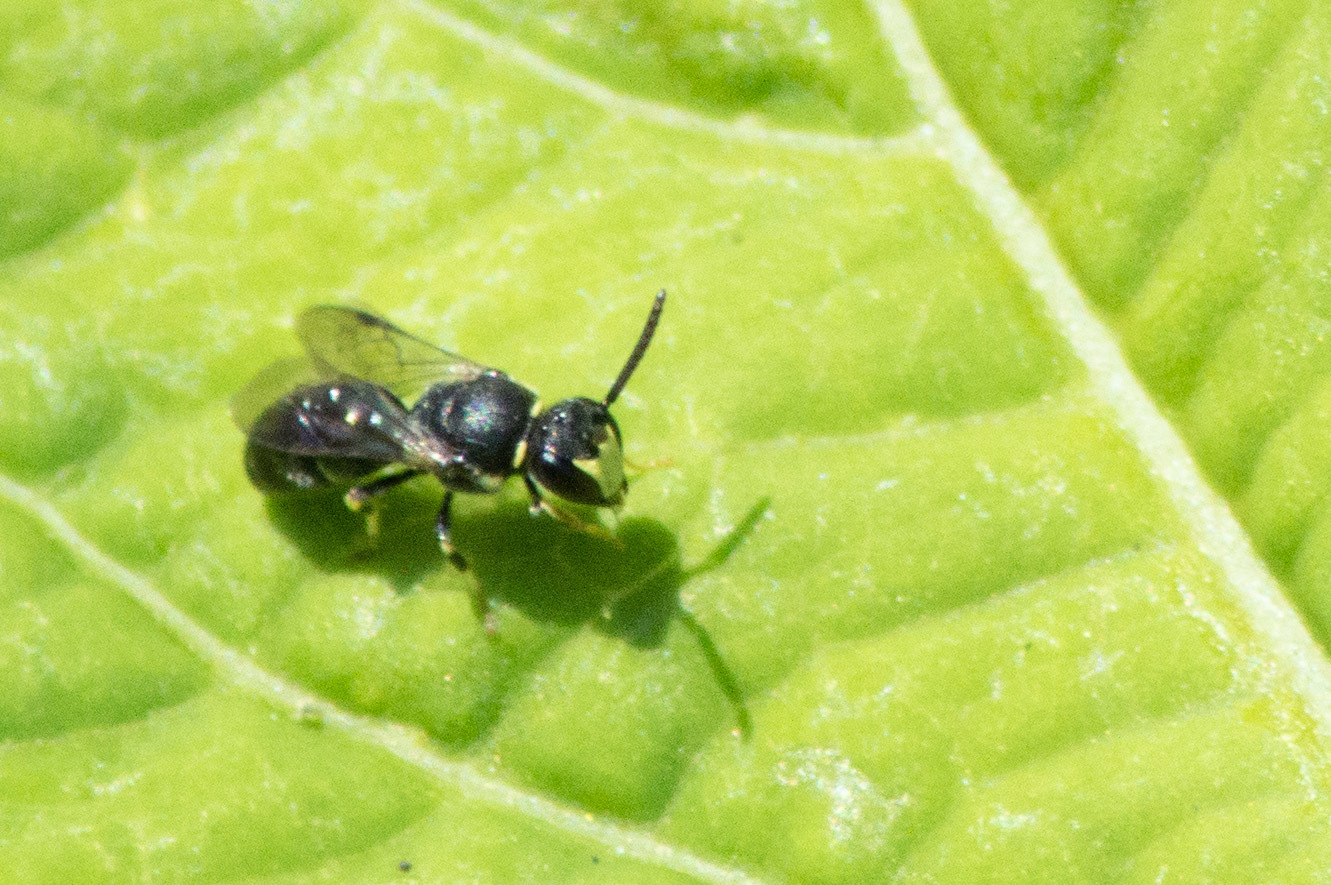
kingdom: Animalia
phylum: Arthropoda
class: Insecta
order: Hymenoptera
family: Colletidae
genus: Hylaeus
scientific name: Hylaeus modestus
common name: Yellow-faced bee
